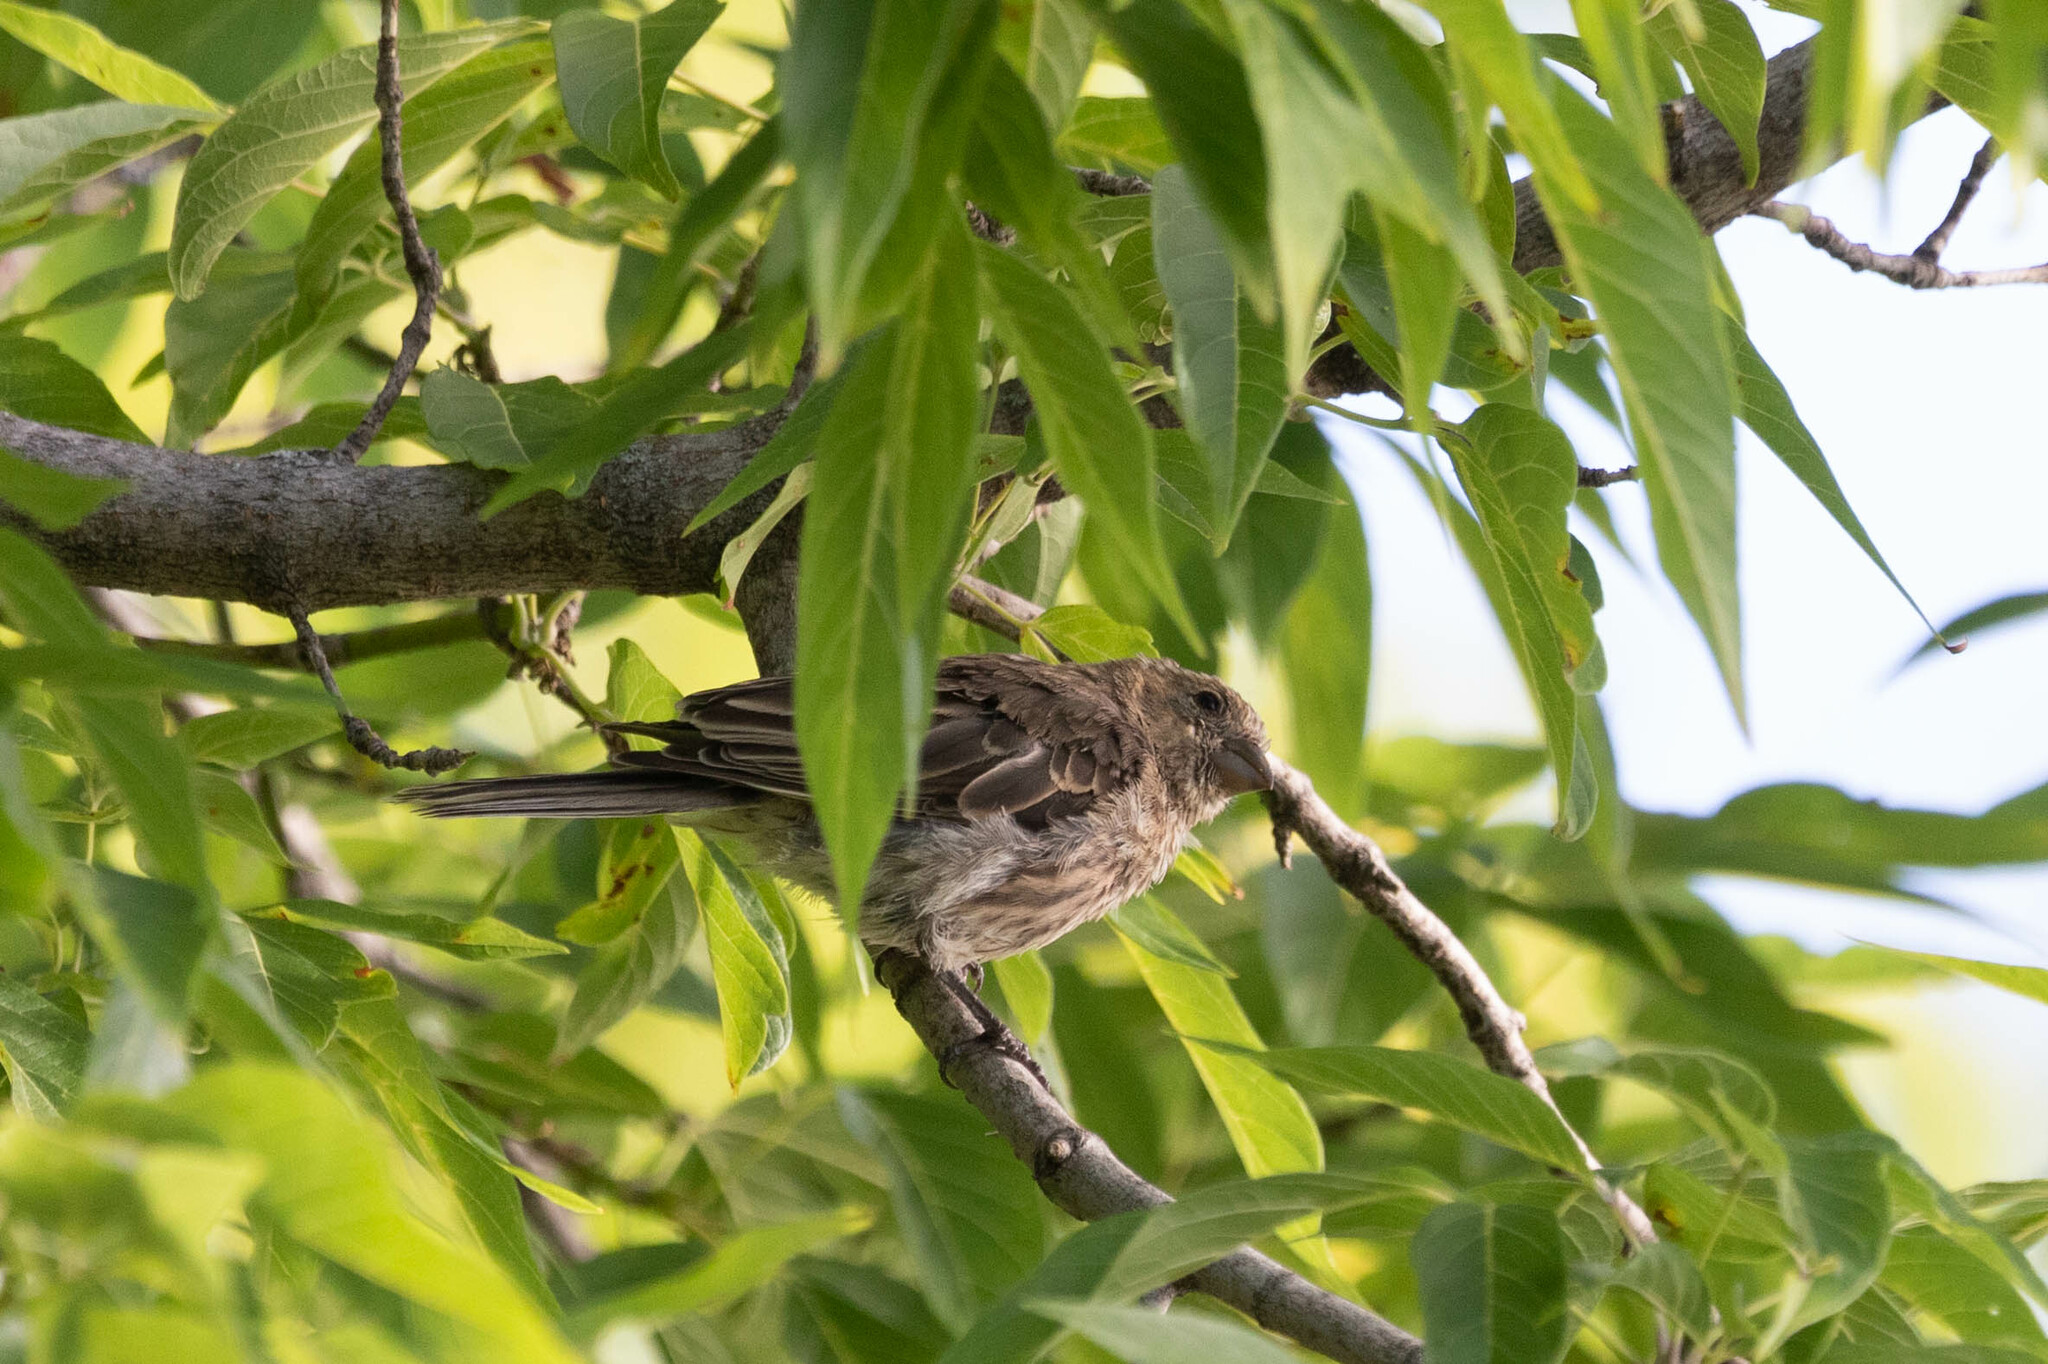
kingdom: Animalia
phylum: Chordata
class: Aves
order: Passeriformes
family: Fringillidae
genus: Haemorhous
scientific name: Haemorhous mexicanus
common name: House finch
